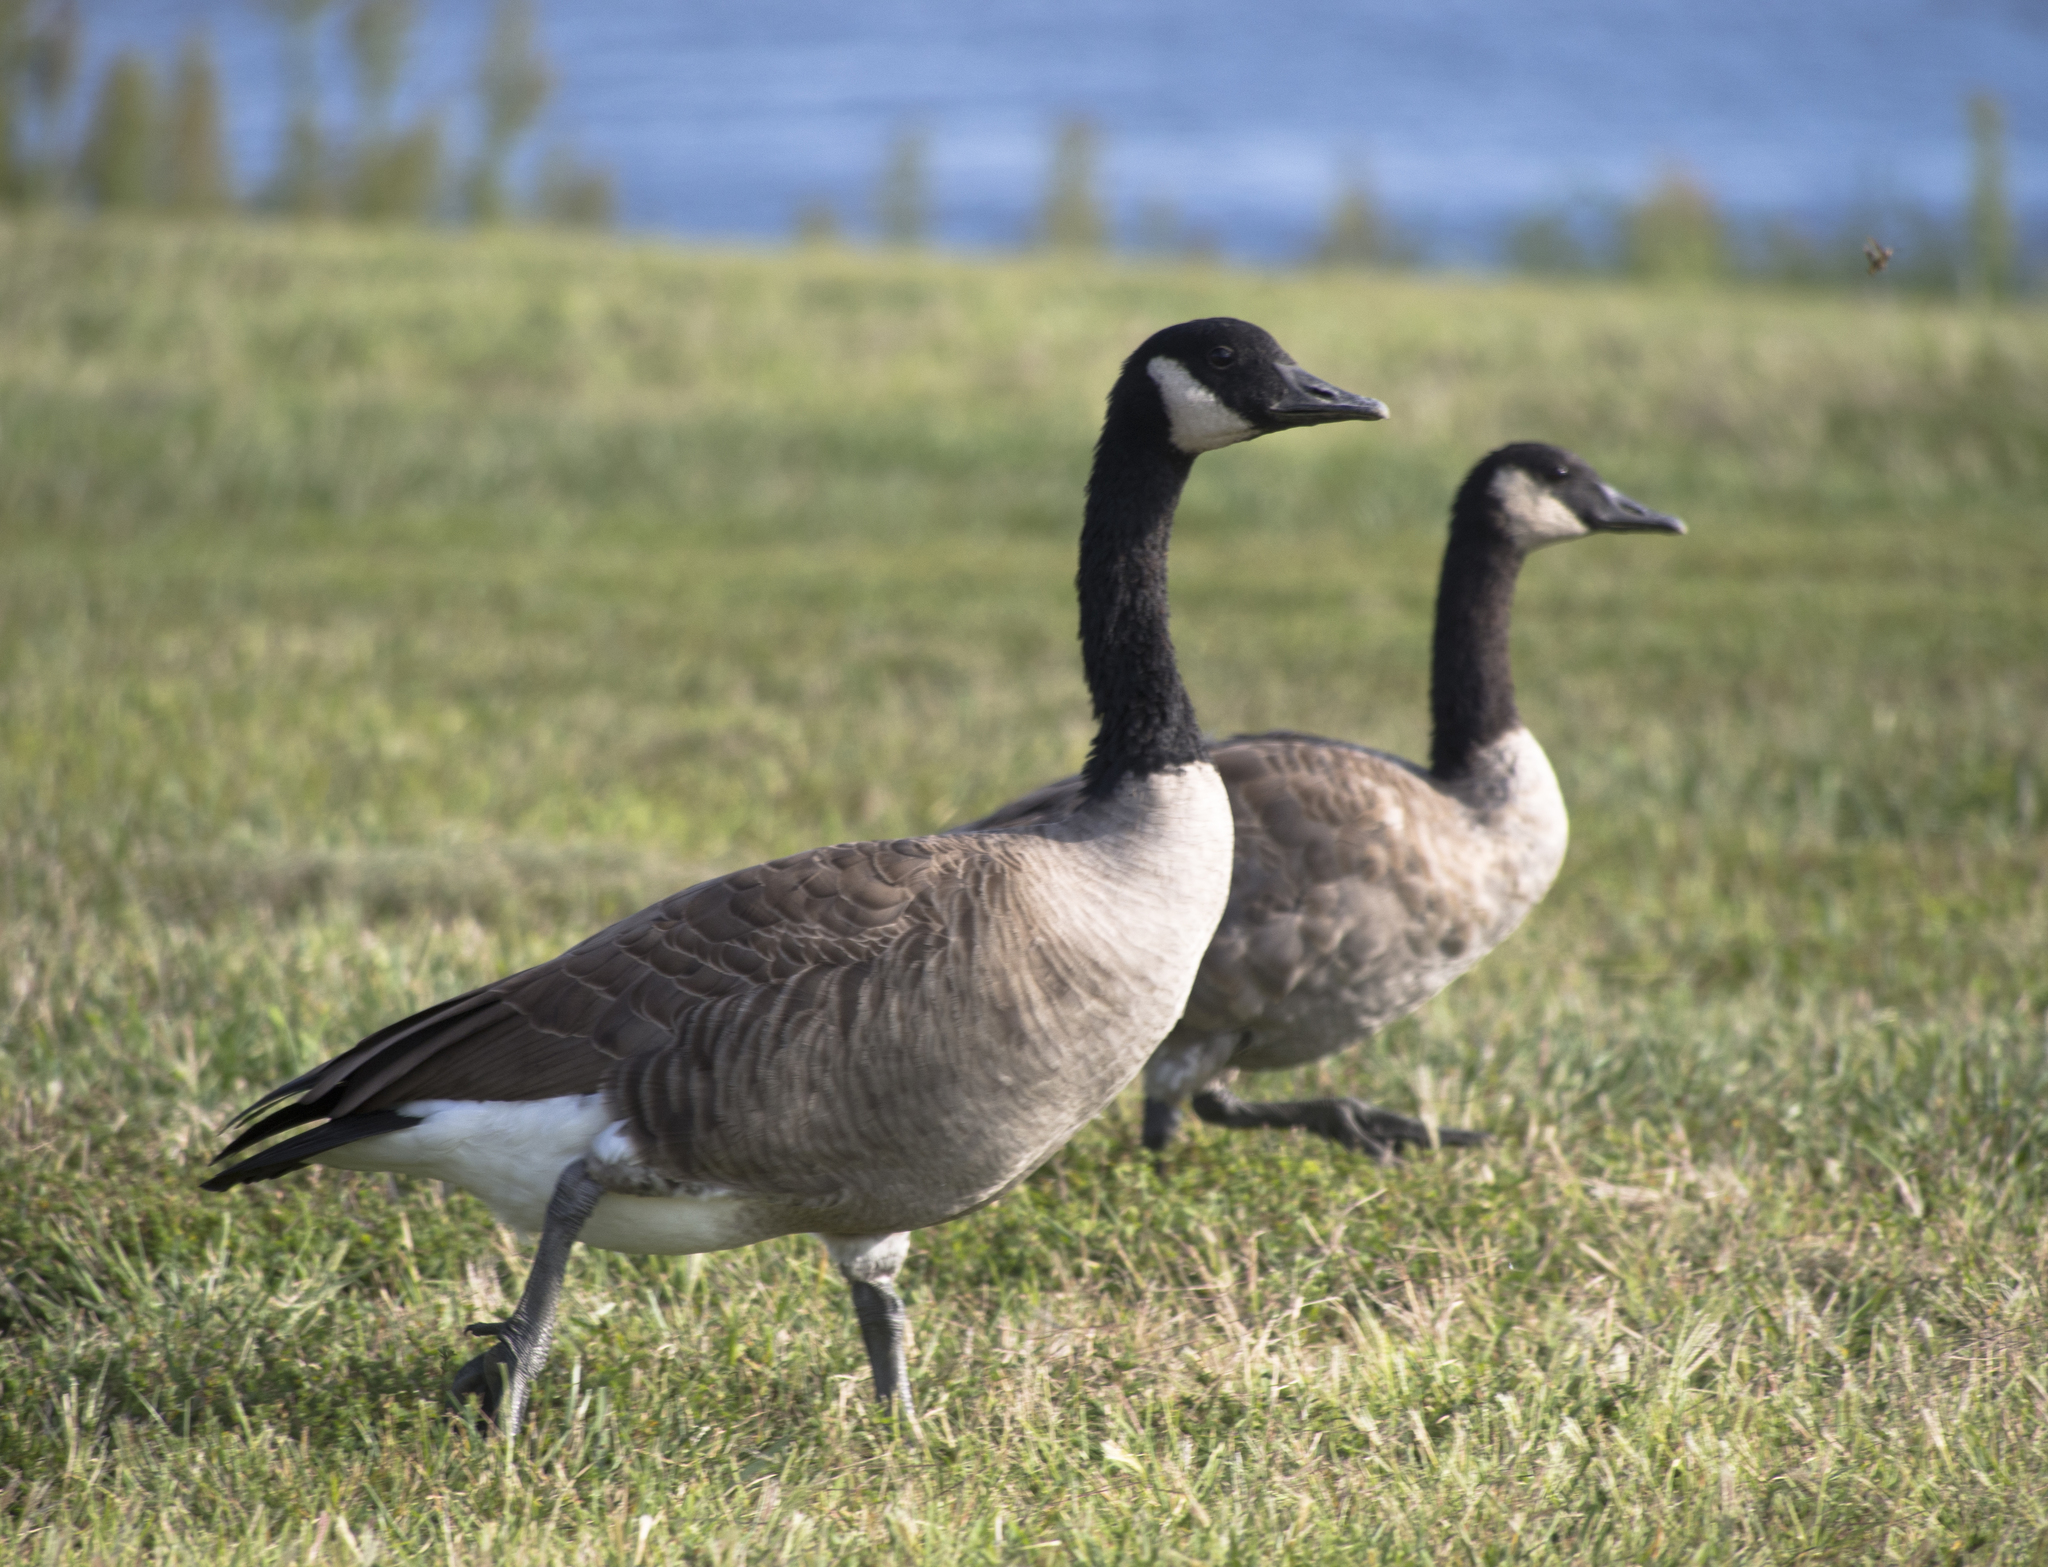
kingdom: Animalia
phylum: Chordata
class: Aves
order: Anseriformes
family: Anatidae
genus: Branta
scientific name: Branta canadensis
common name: Canada goose
